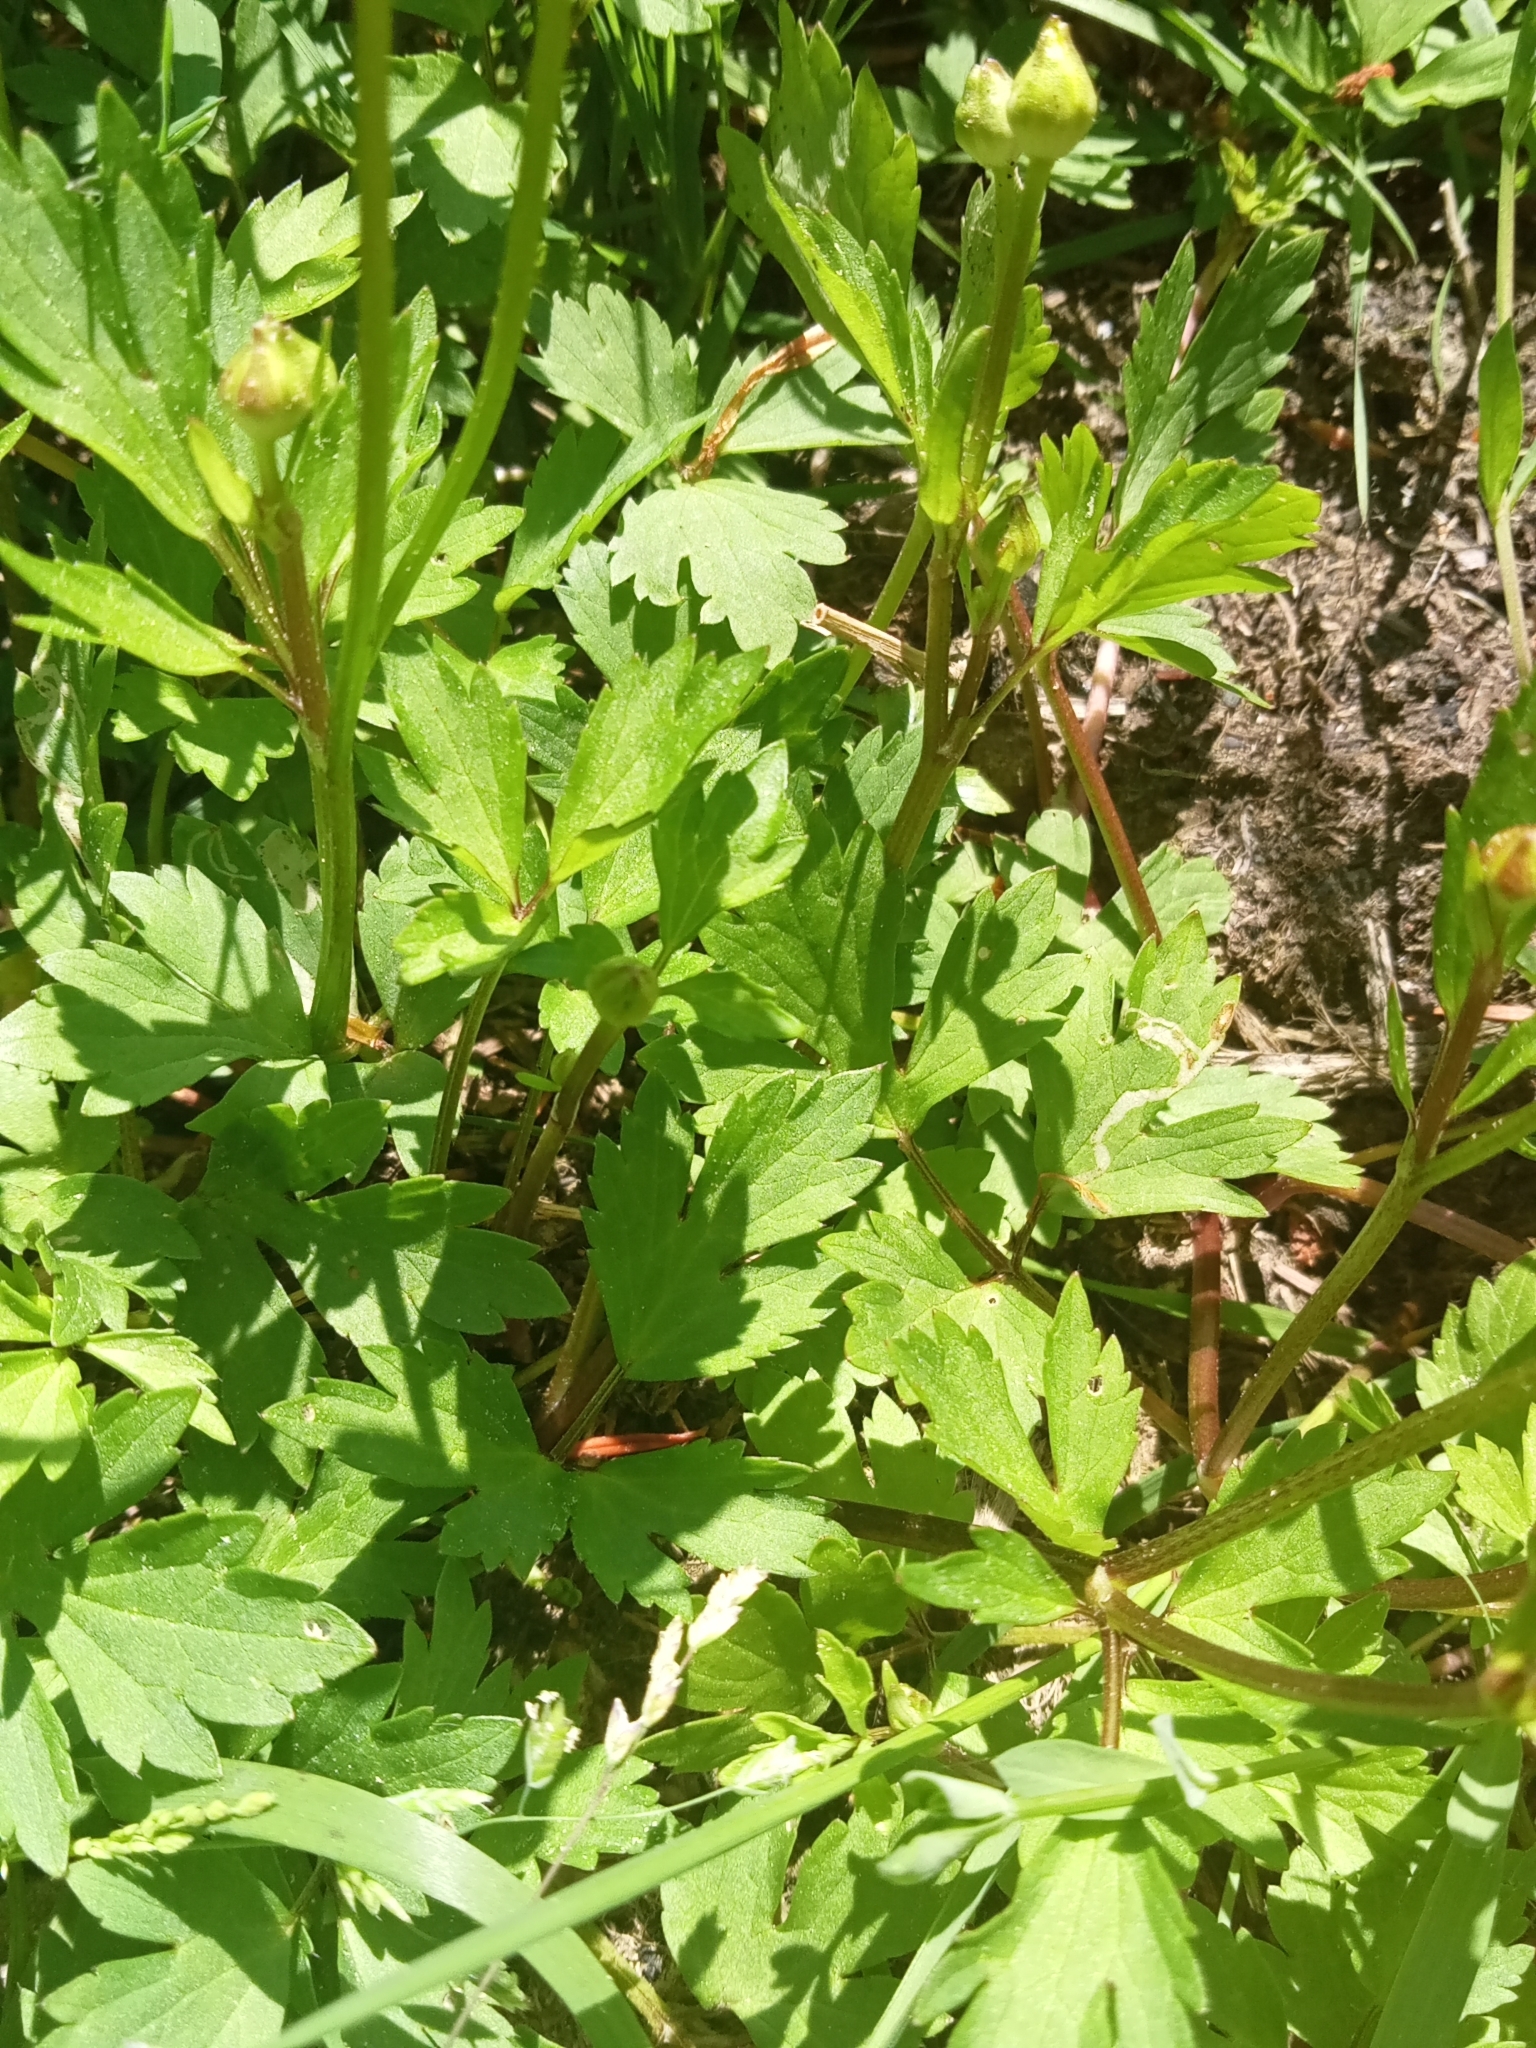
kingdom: Plantae
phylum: Tracheophyta
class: Magnoliopsida
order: Ranunculales
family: Ranunculaceae
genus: Ranunculus
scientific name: Ranunculus repens
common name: Creeping buttercup
